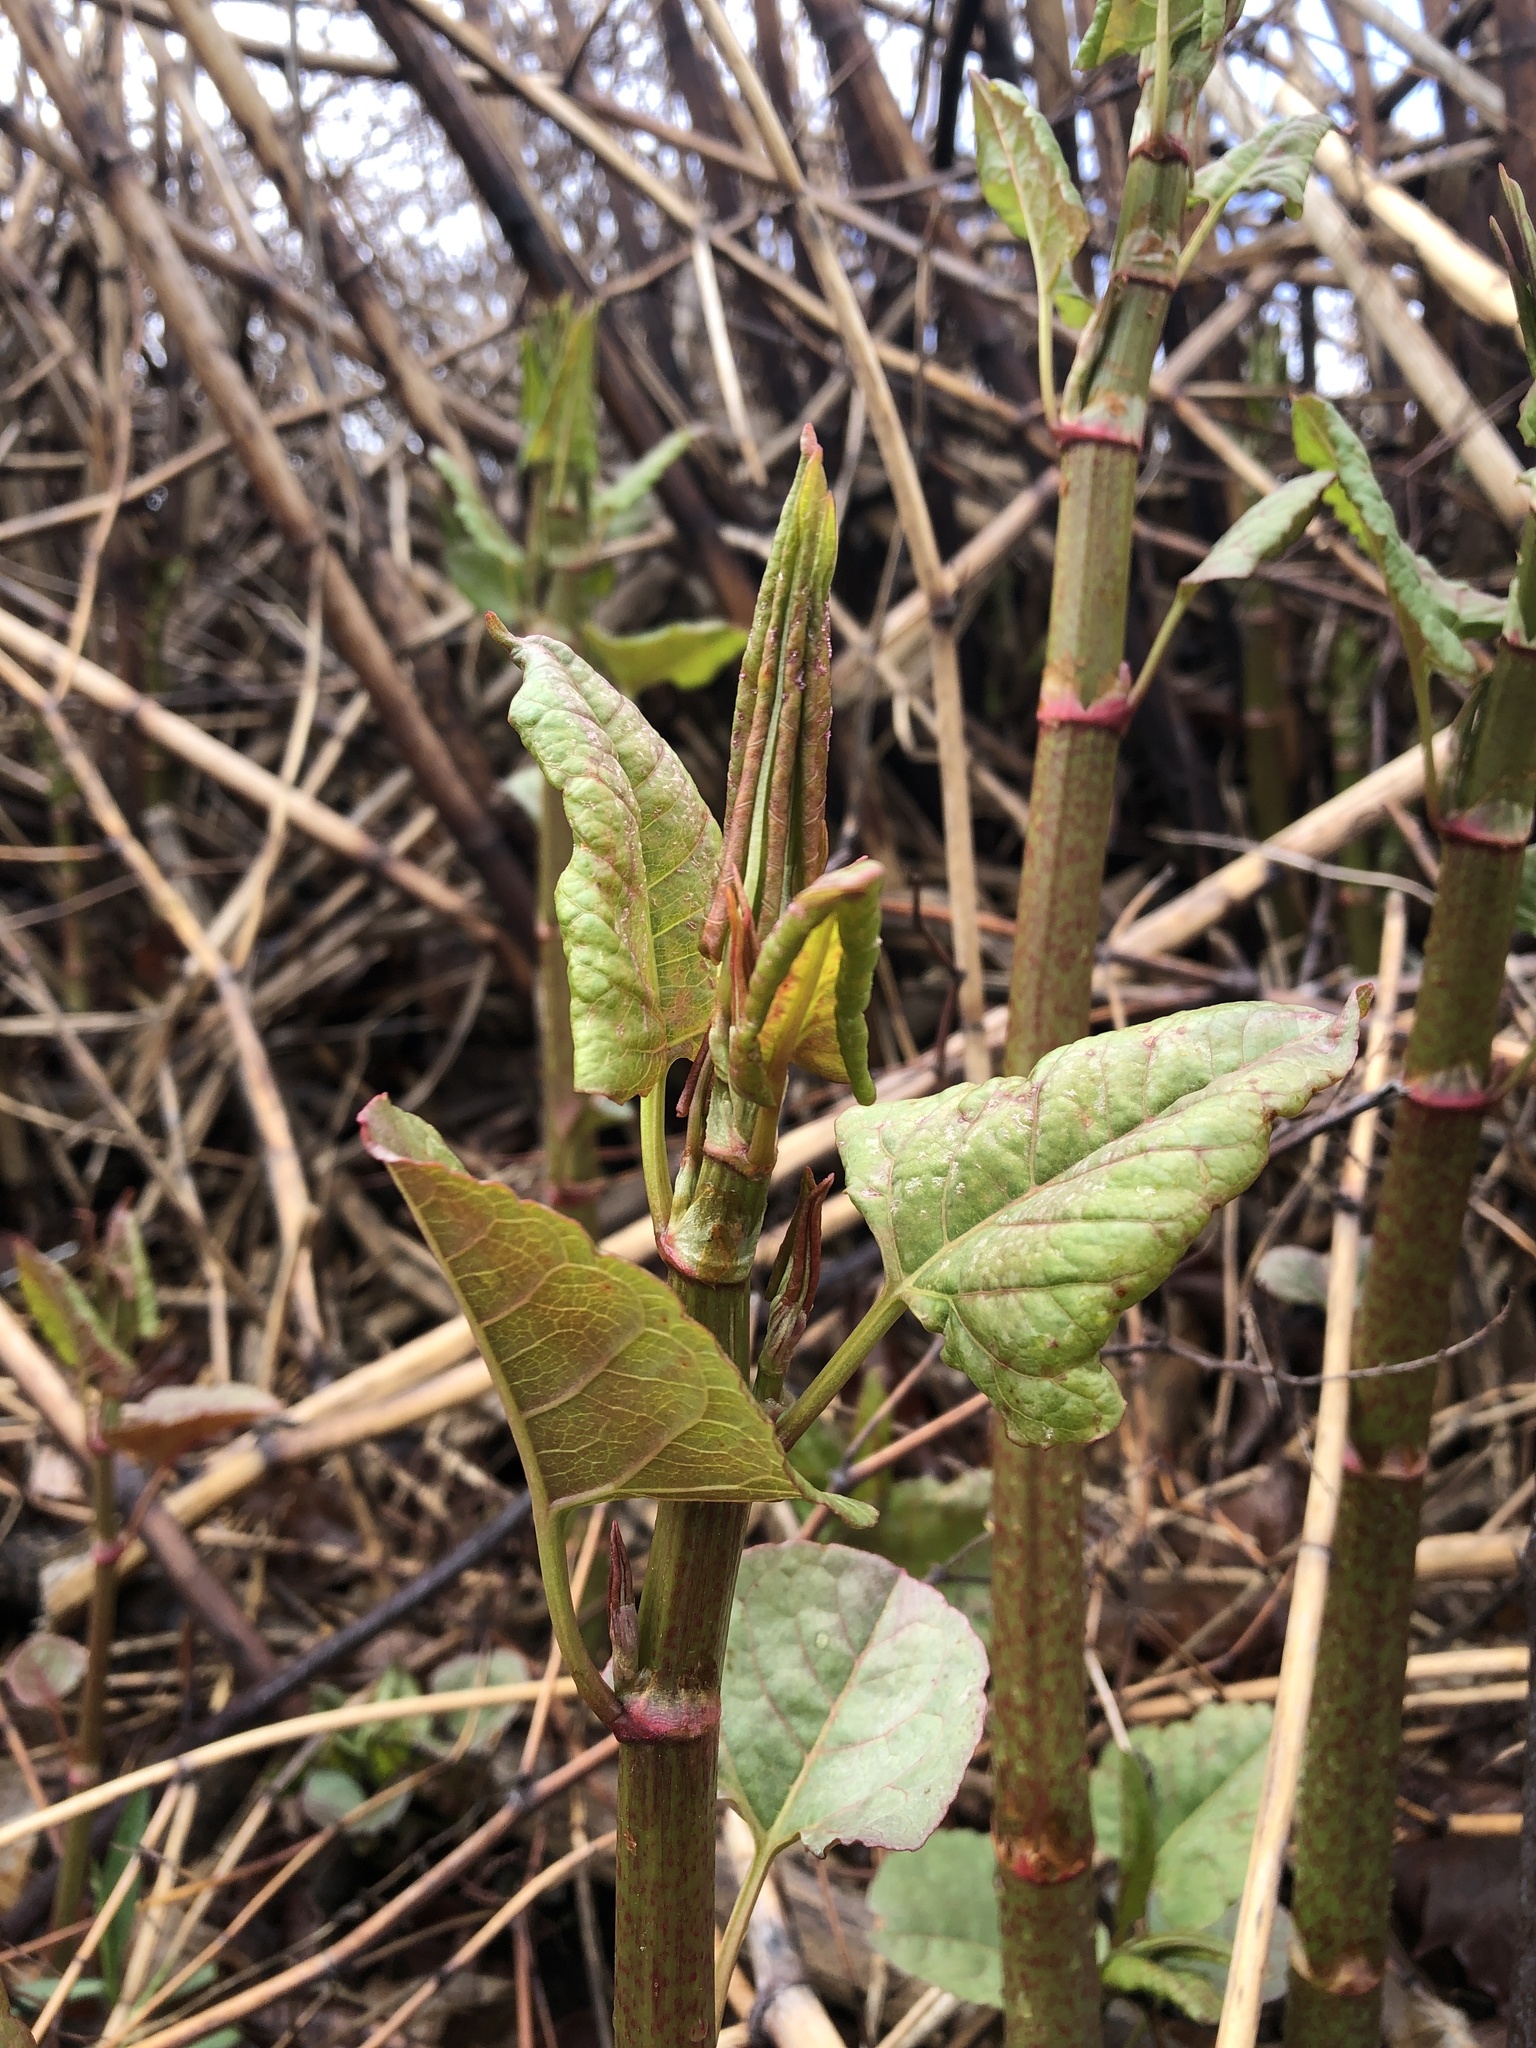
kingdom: Plantae
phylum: Tracheophyta
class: Magnoliopsida
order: Caryophyllales
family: Polygonaceae
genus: Reynoutria
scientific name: Reynoutria japonica
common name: Japanese knotweed
